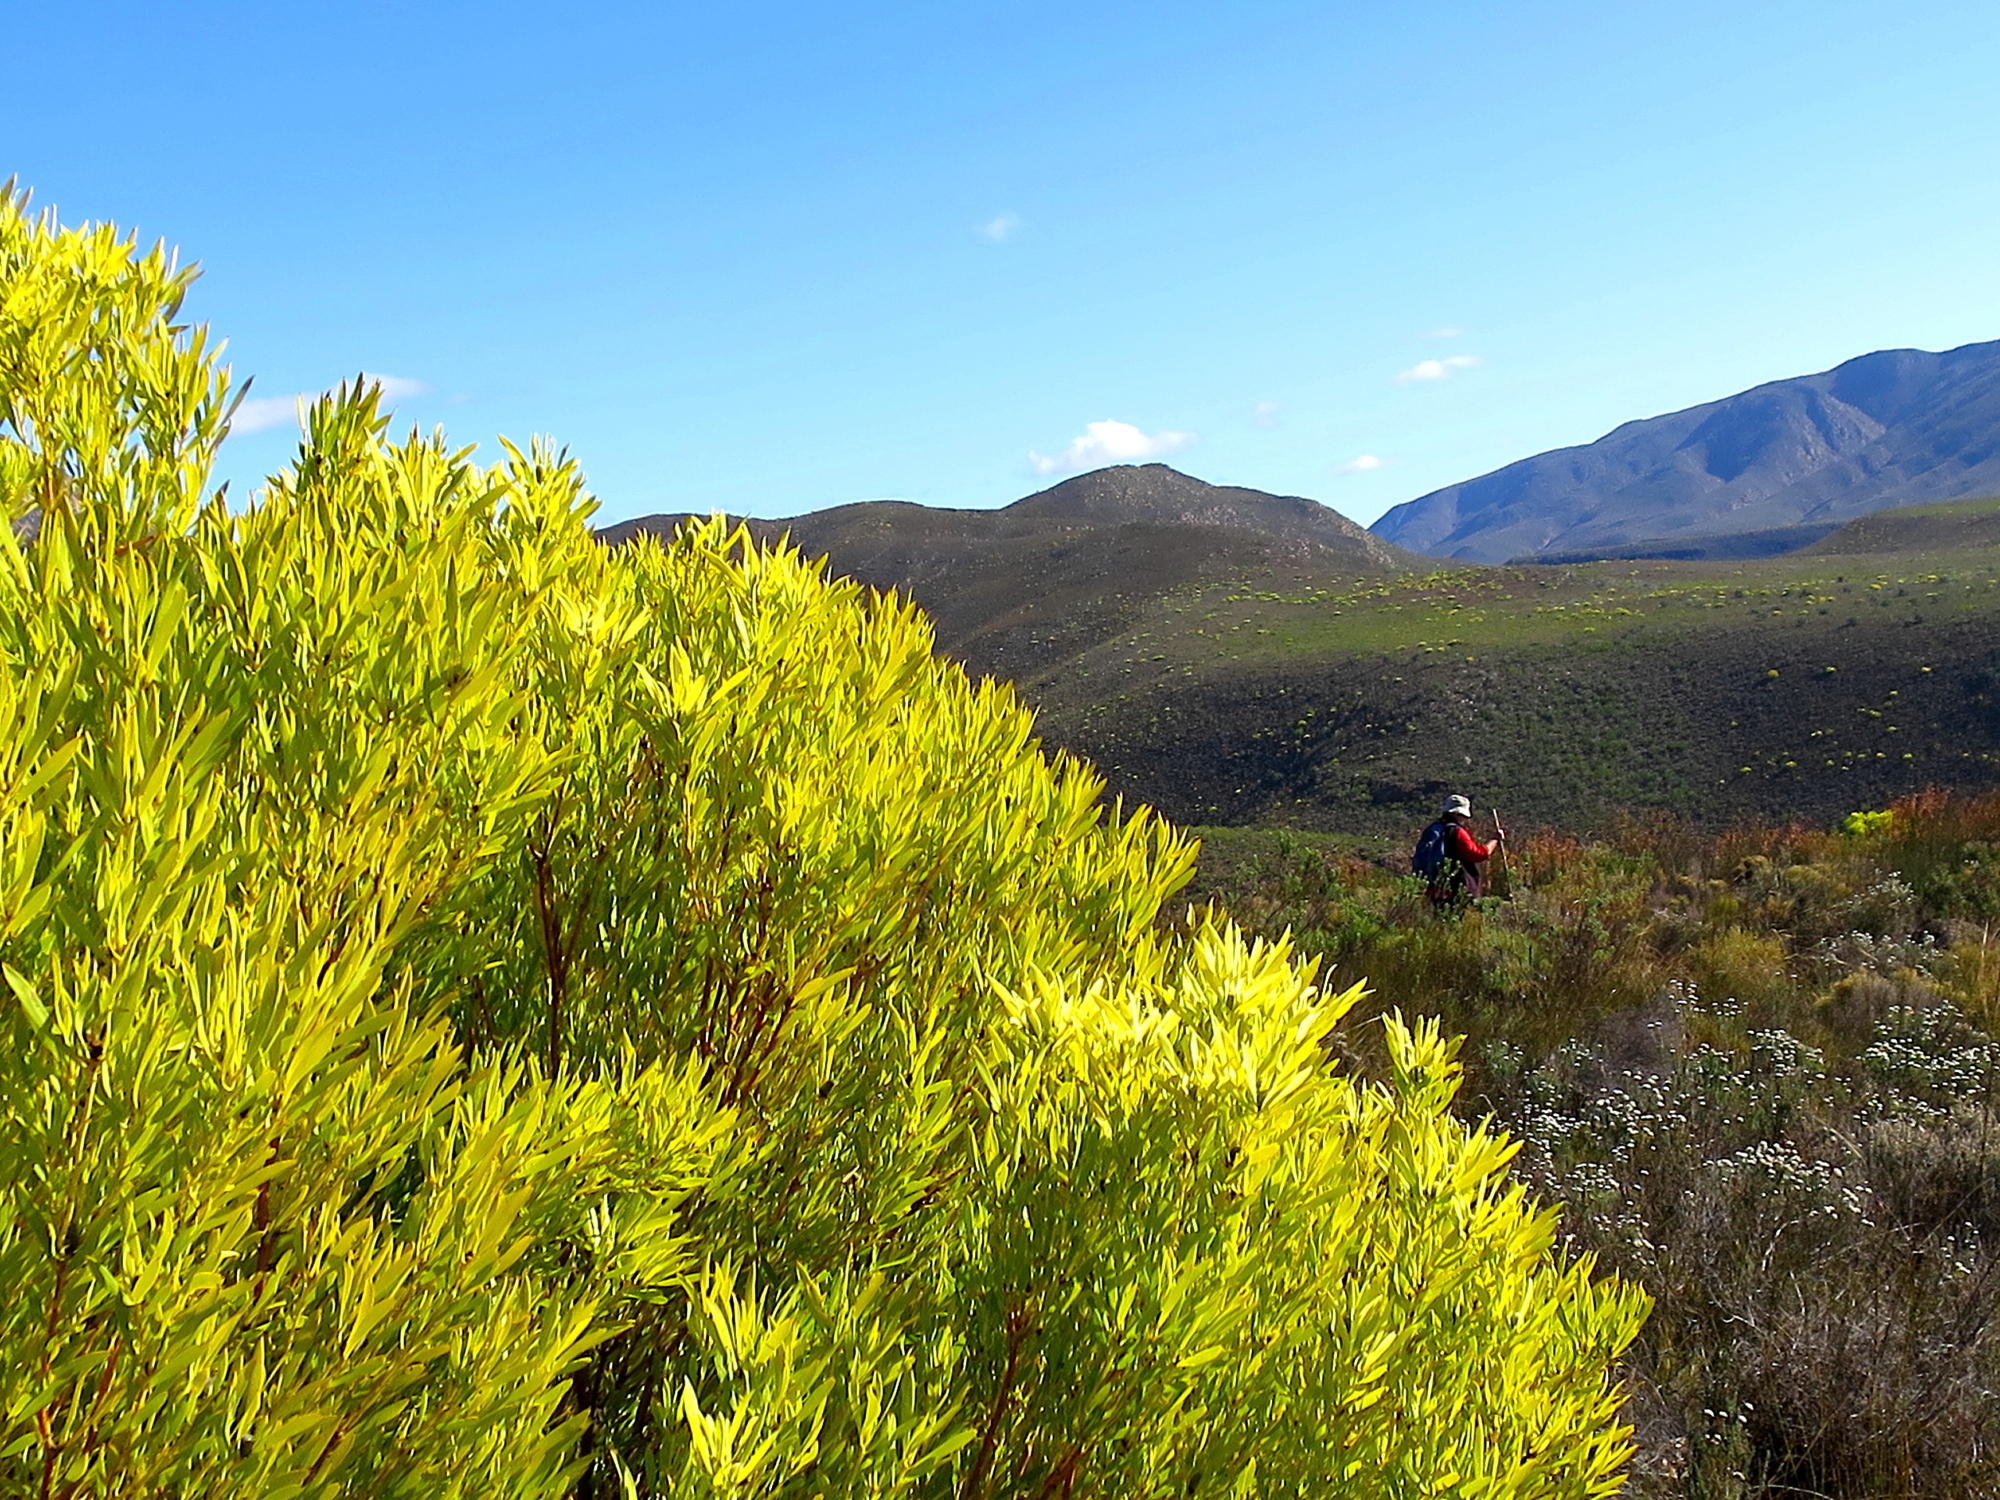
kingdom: Plantae
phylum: Tracheophyta
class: Magnoliopsida
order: Proteales
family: Proteaceae
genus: Leucadendron
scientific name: Leucadendron salignum
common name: Common sunshine conebush
